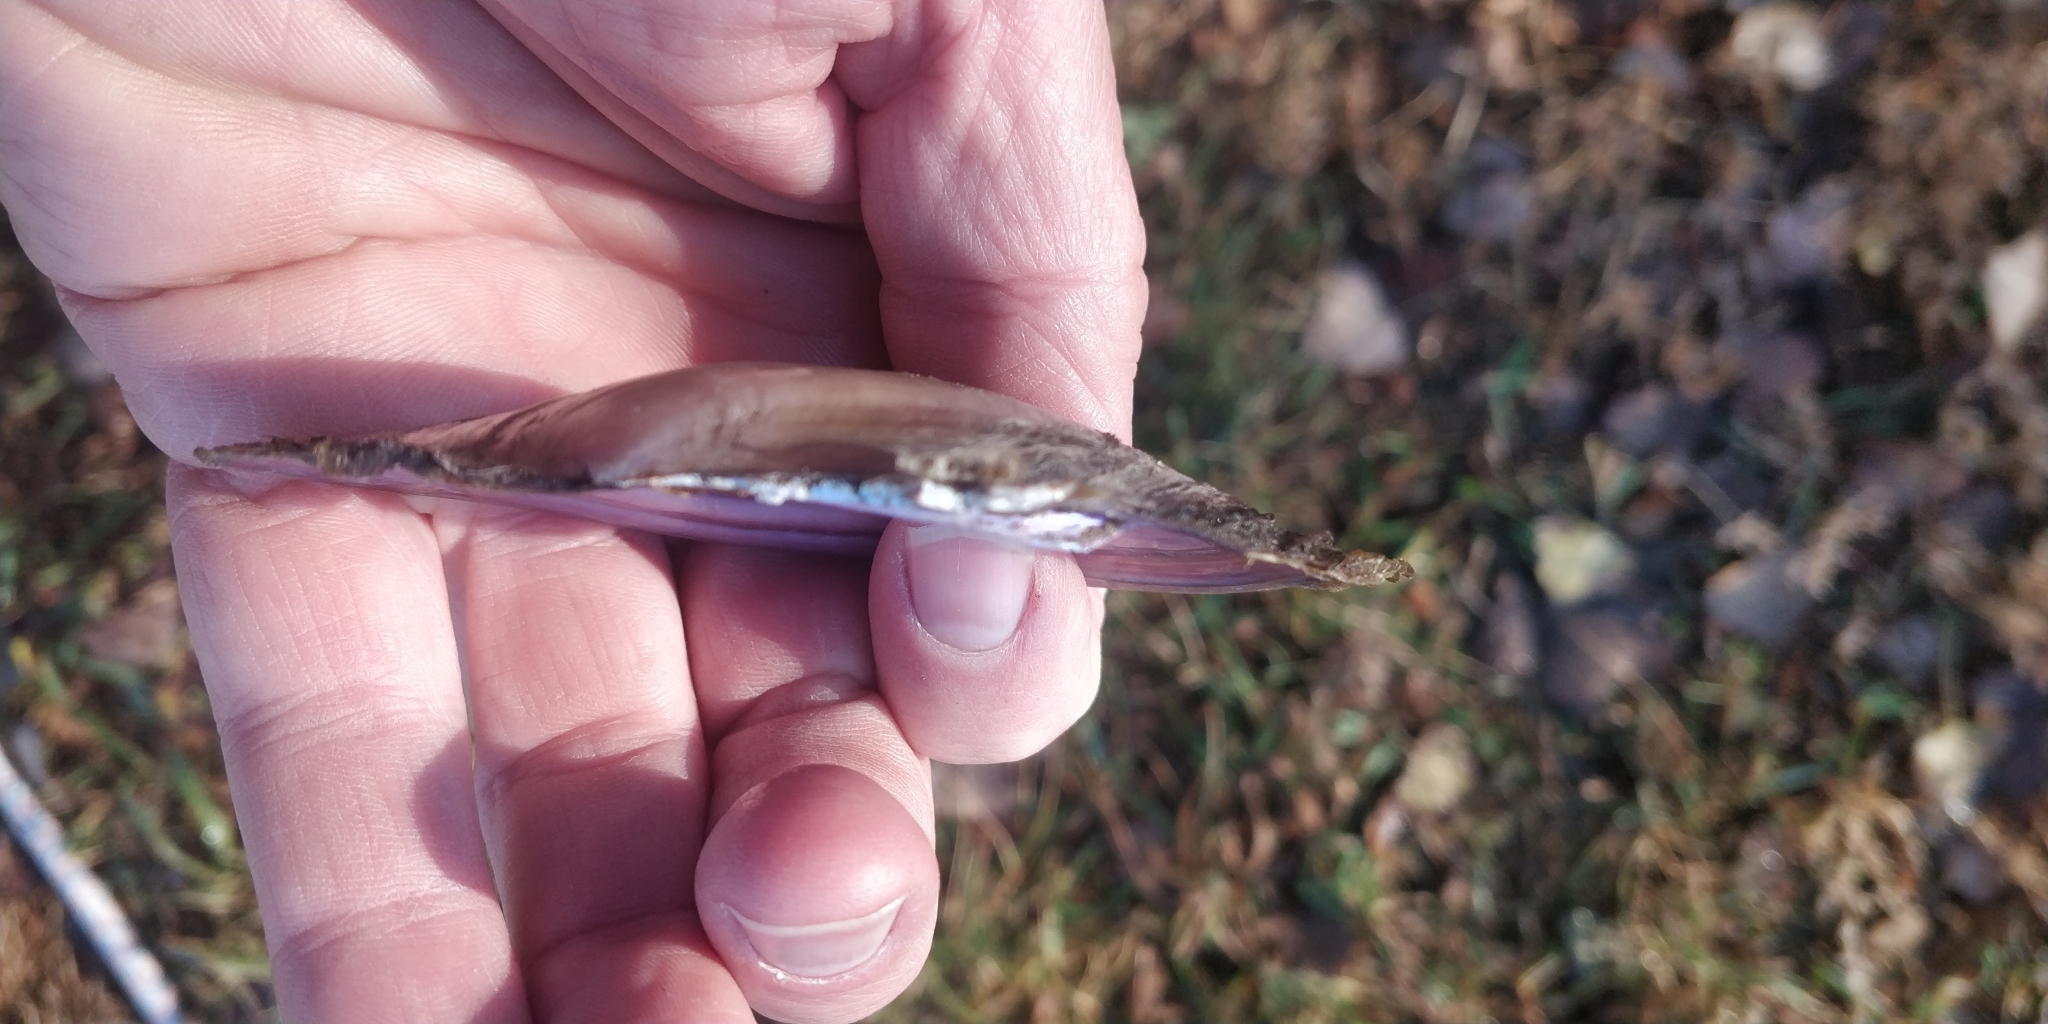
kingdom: Animalia
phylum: Mollusca
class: Bivalvia
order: Unionida
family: Unionidae
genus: Potamilus
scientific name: Potamilus ohiensis
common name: Pink papershell
